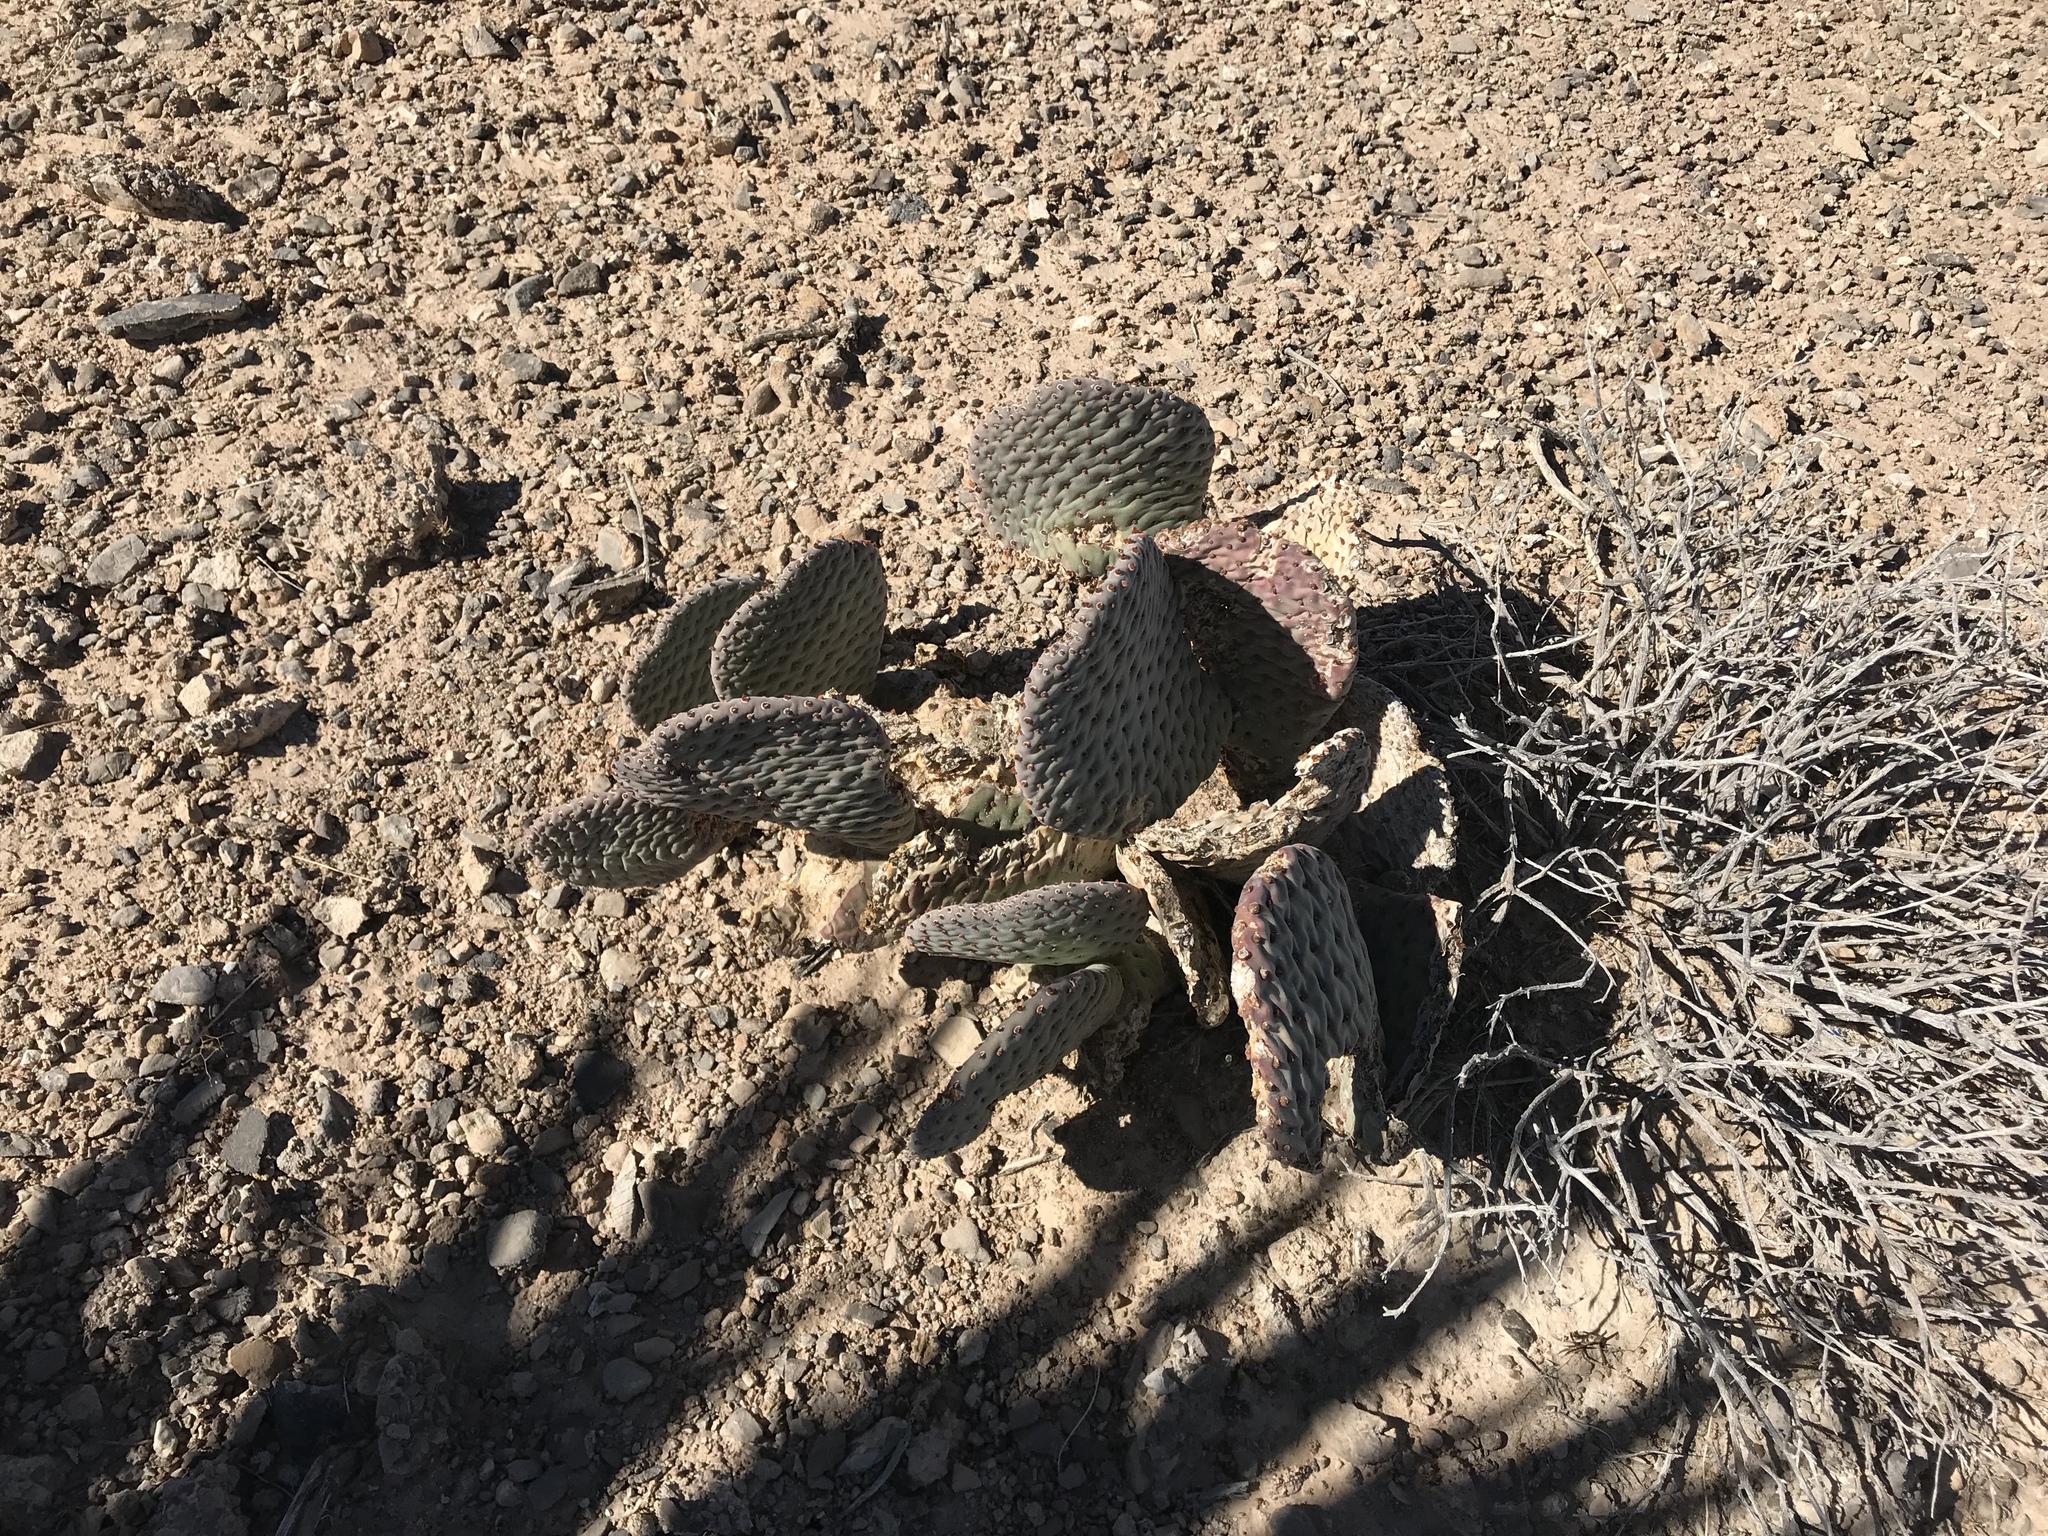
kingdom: Plantae
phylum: Tracheophyta
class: Magnoliopsida
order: Caryophyllales
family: Cactaceae
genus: Opuntia
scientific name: Opuntia basilaris
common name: Beavertail prickly-pear
